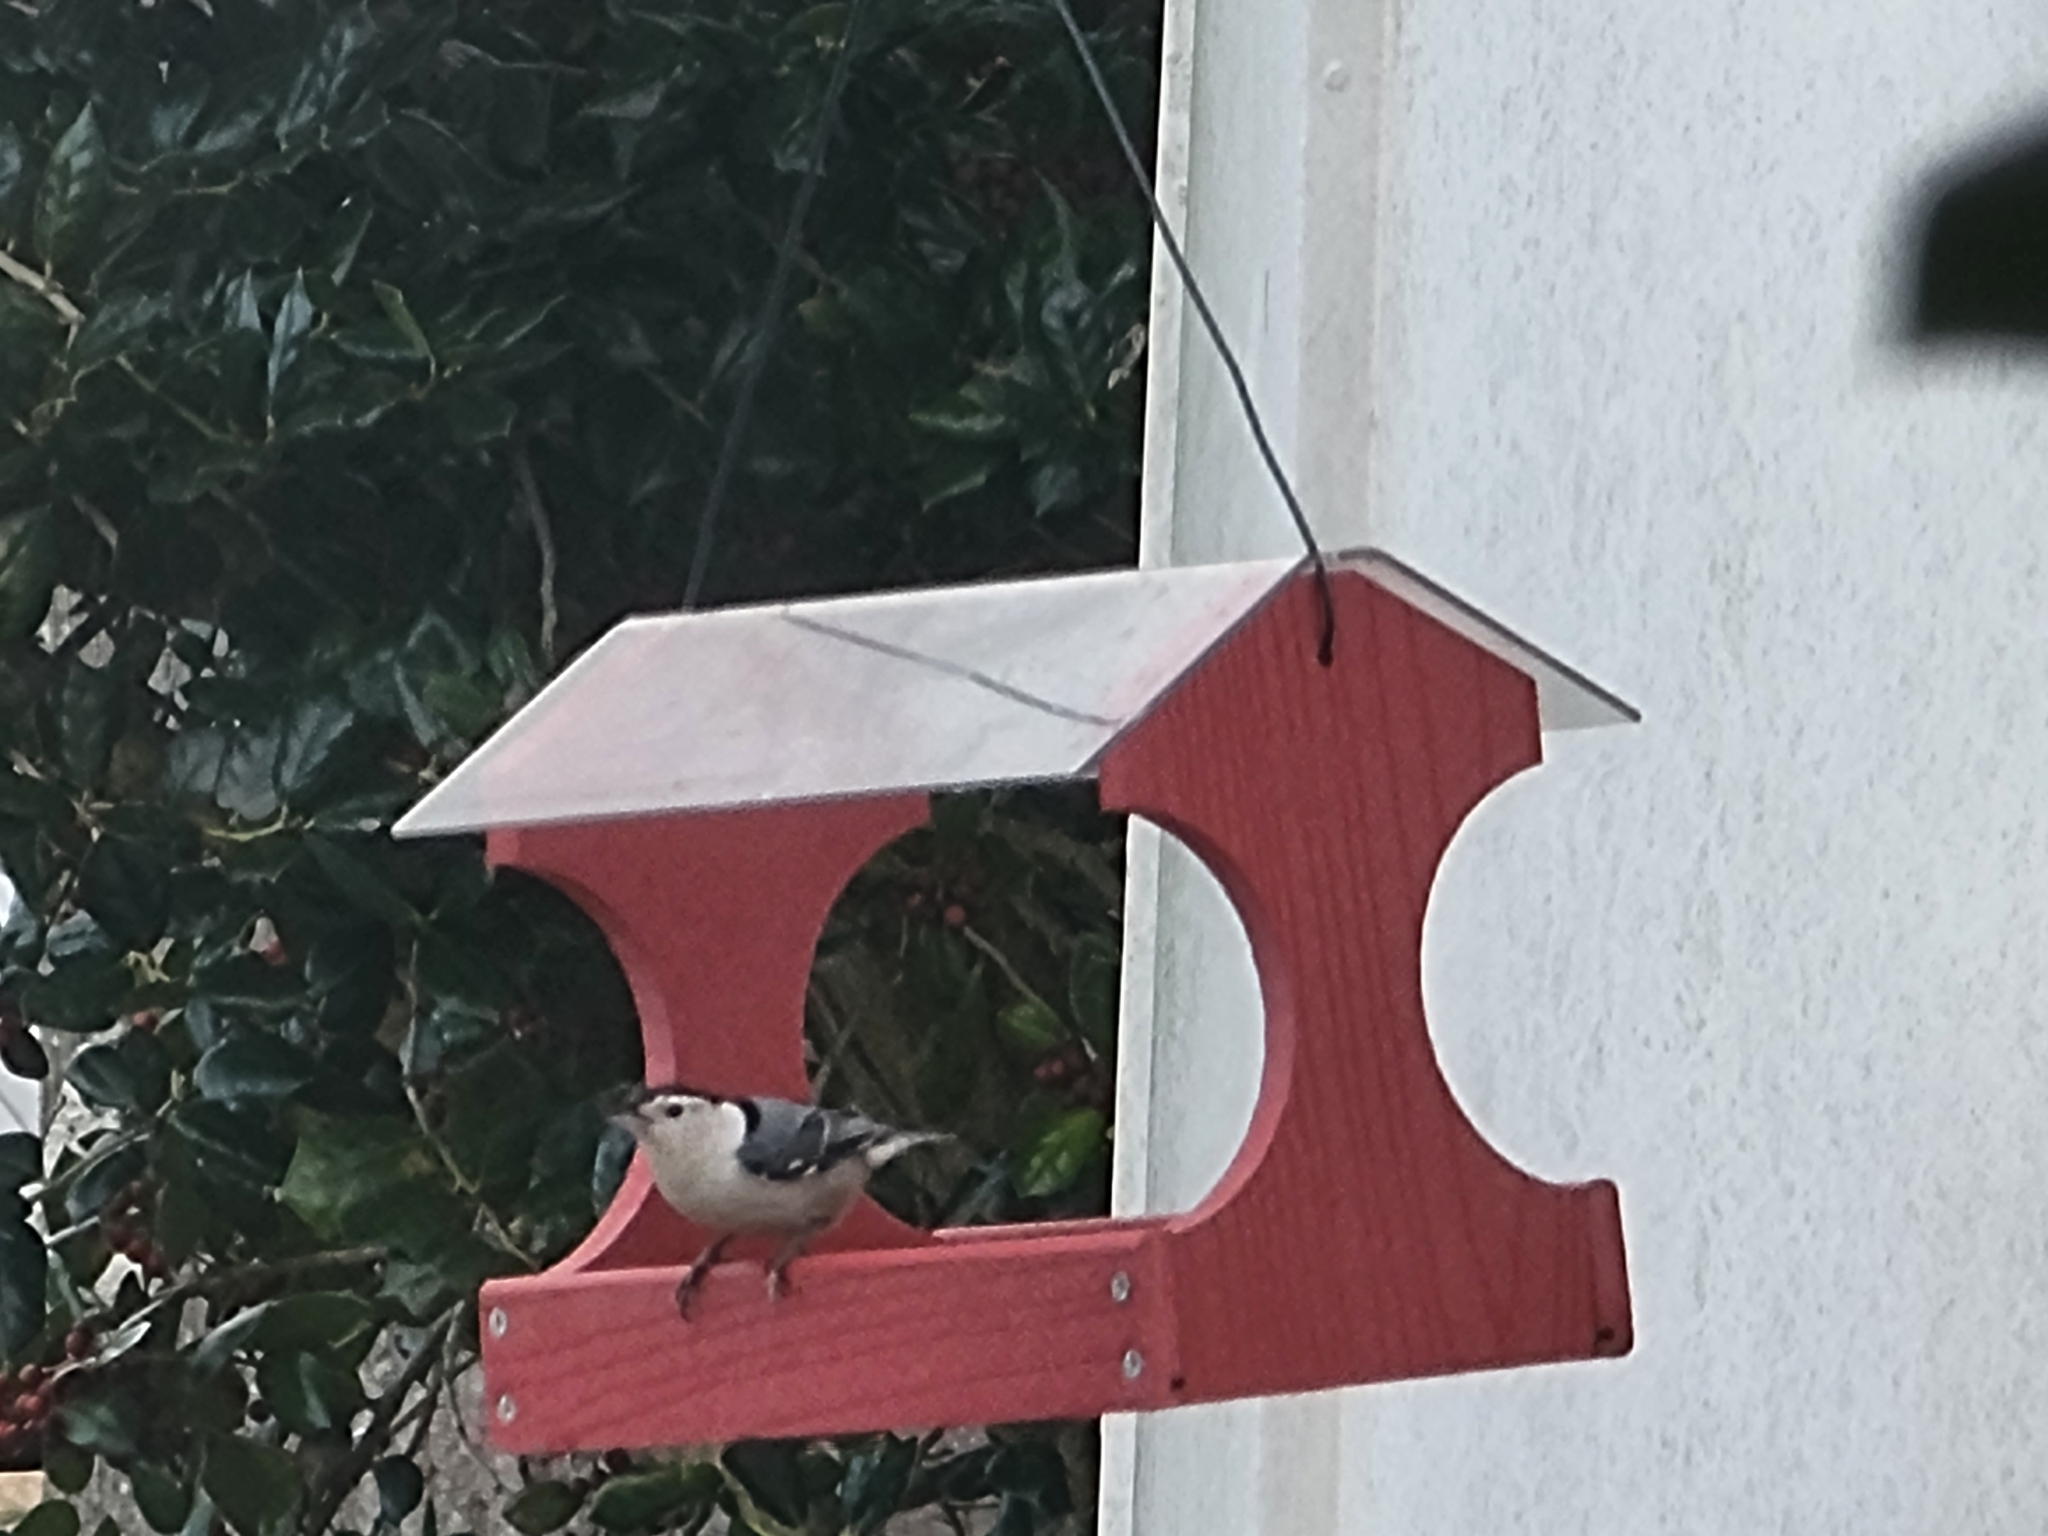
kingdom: Animalia
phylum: Chordata
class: Aves
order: Passeriformes
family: Sittidae
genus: Sitta
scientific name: Sitta carolinensis
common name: White-breasted nuthatch
